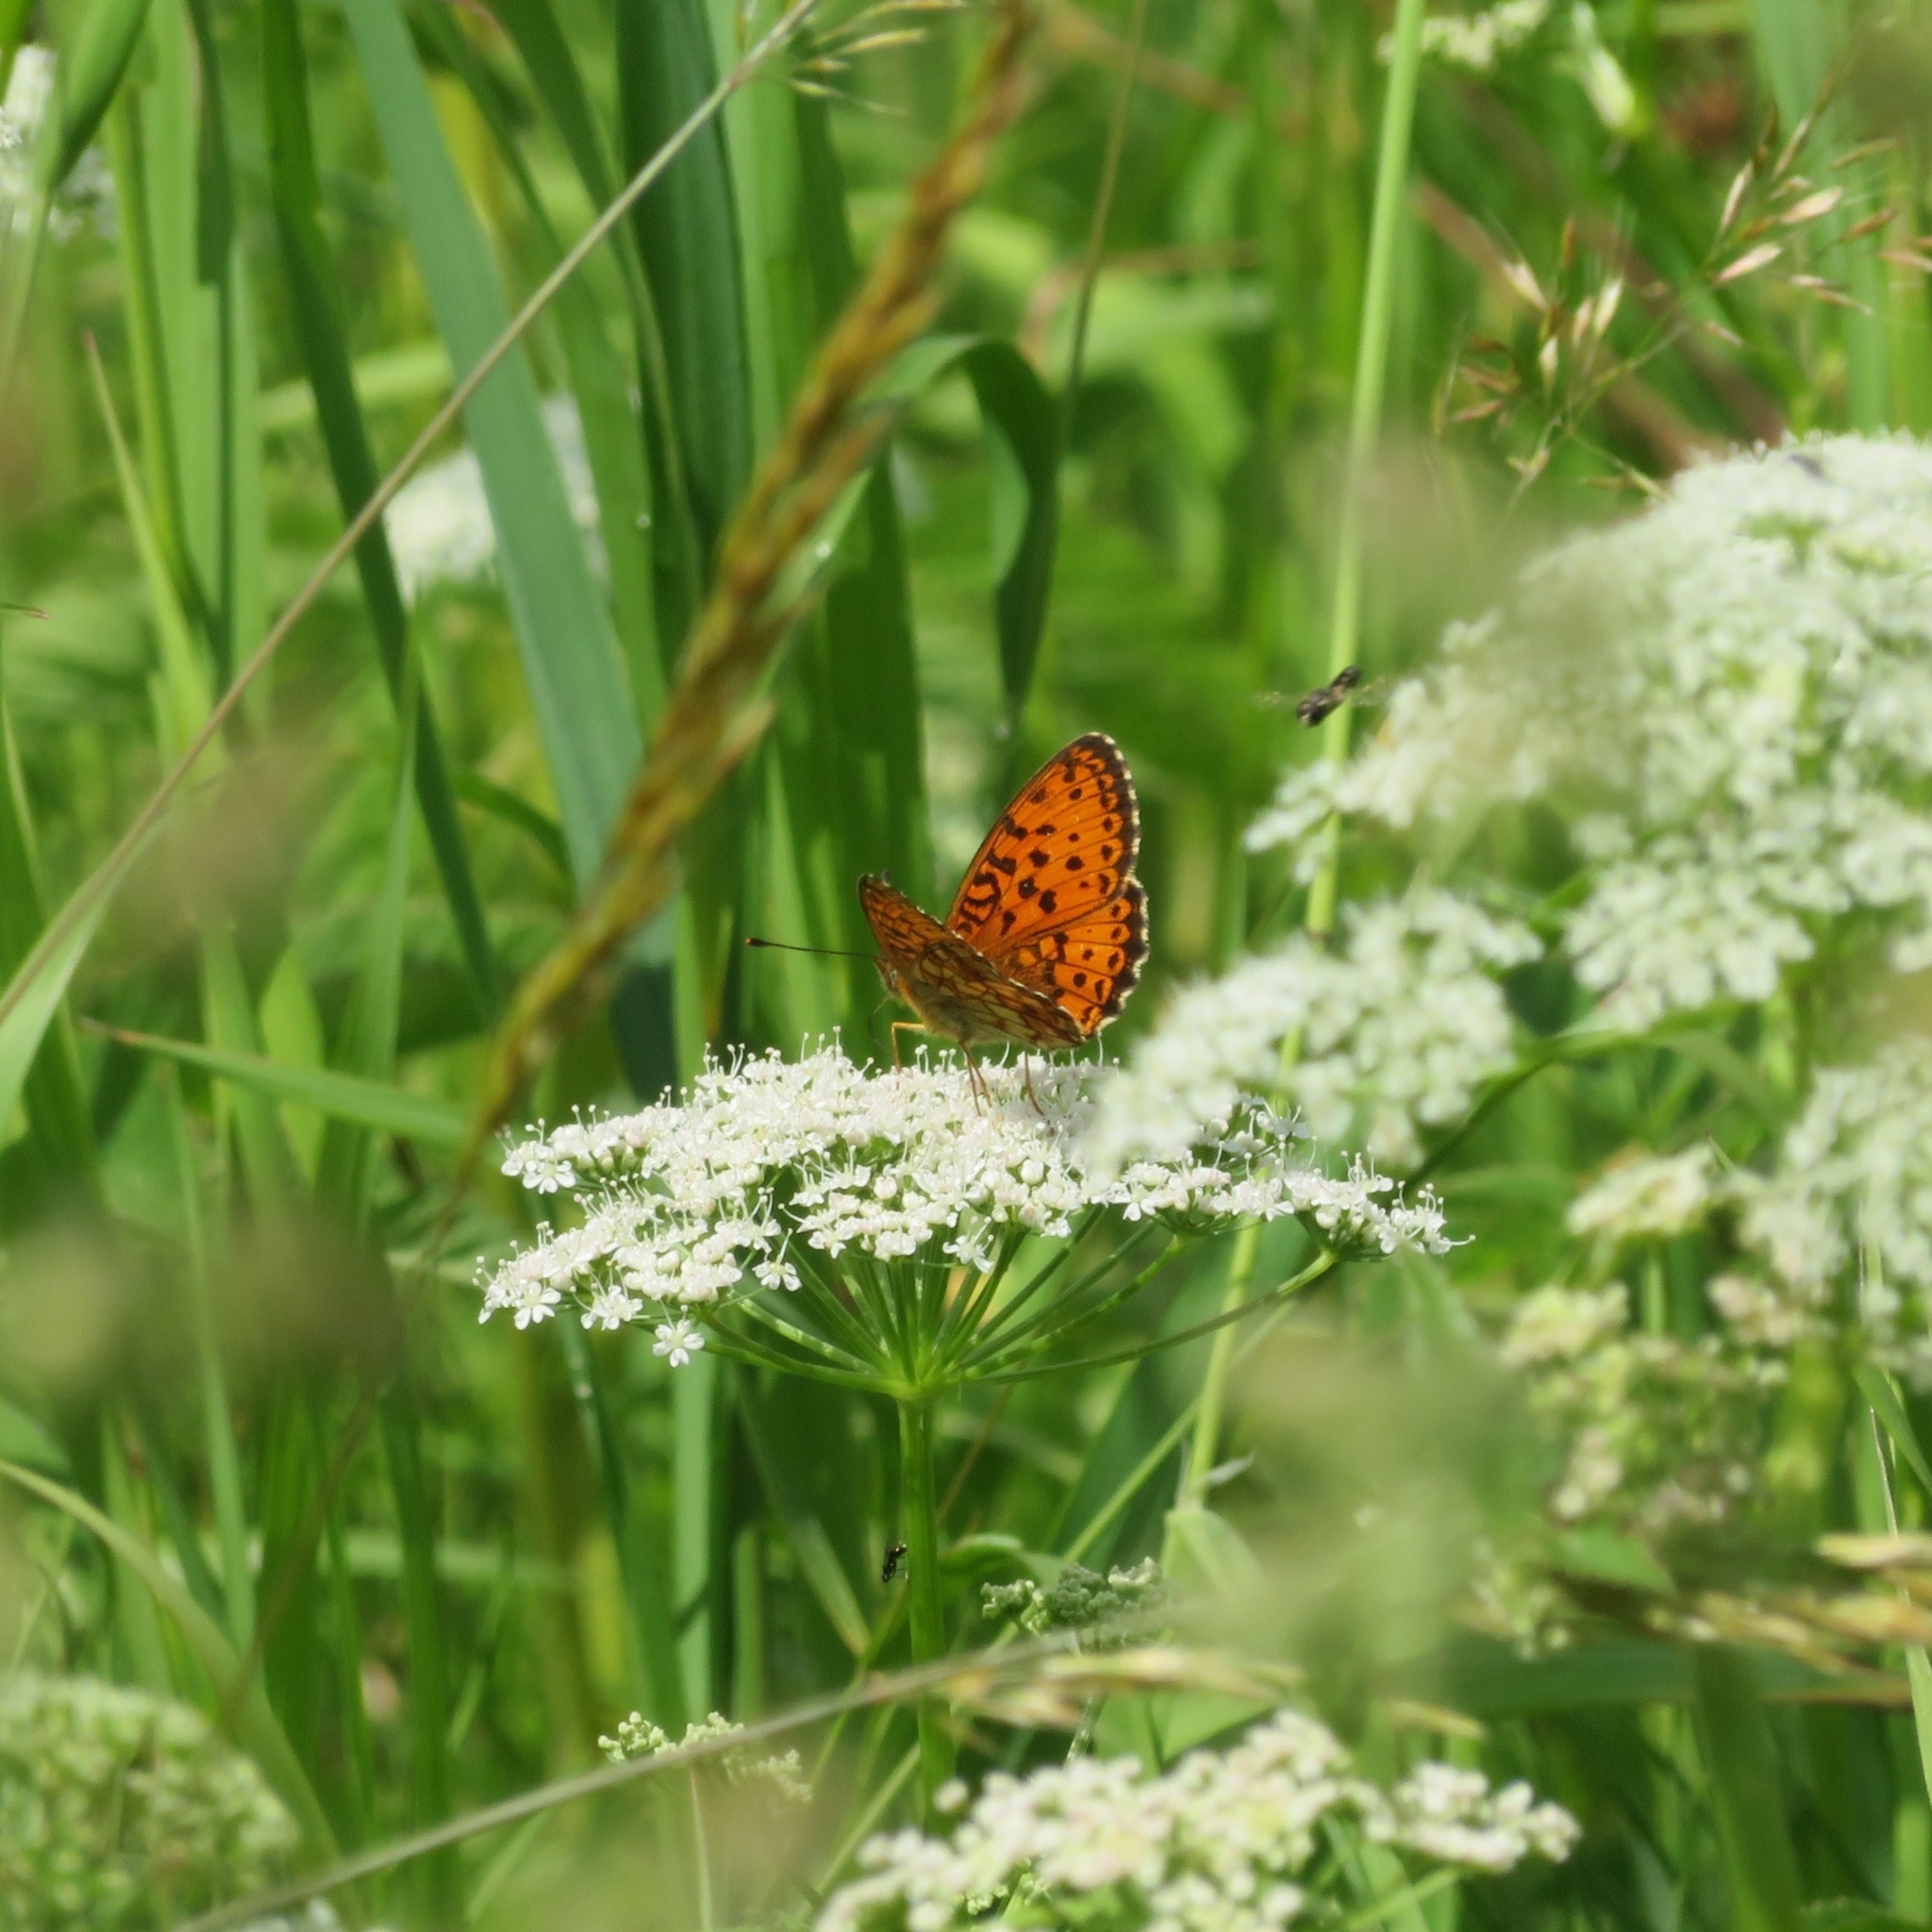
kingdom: Animalia
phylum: Arthropoda
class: Insecta
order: Lepidoptera
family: Nymphalidae
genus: Brenthis
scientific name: Brenthis ino
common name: Lesser marbled fritillary
